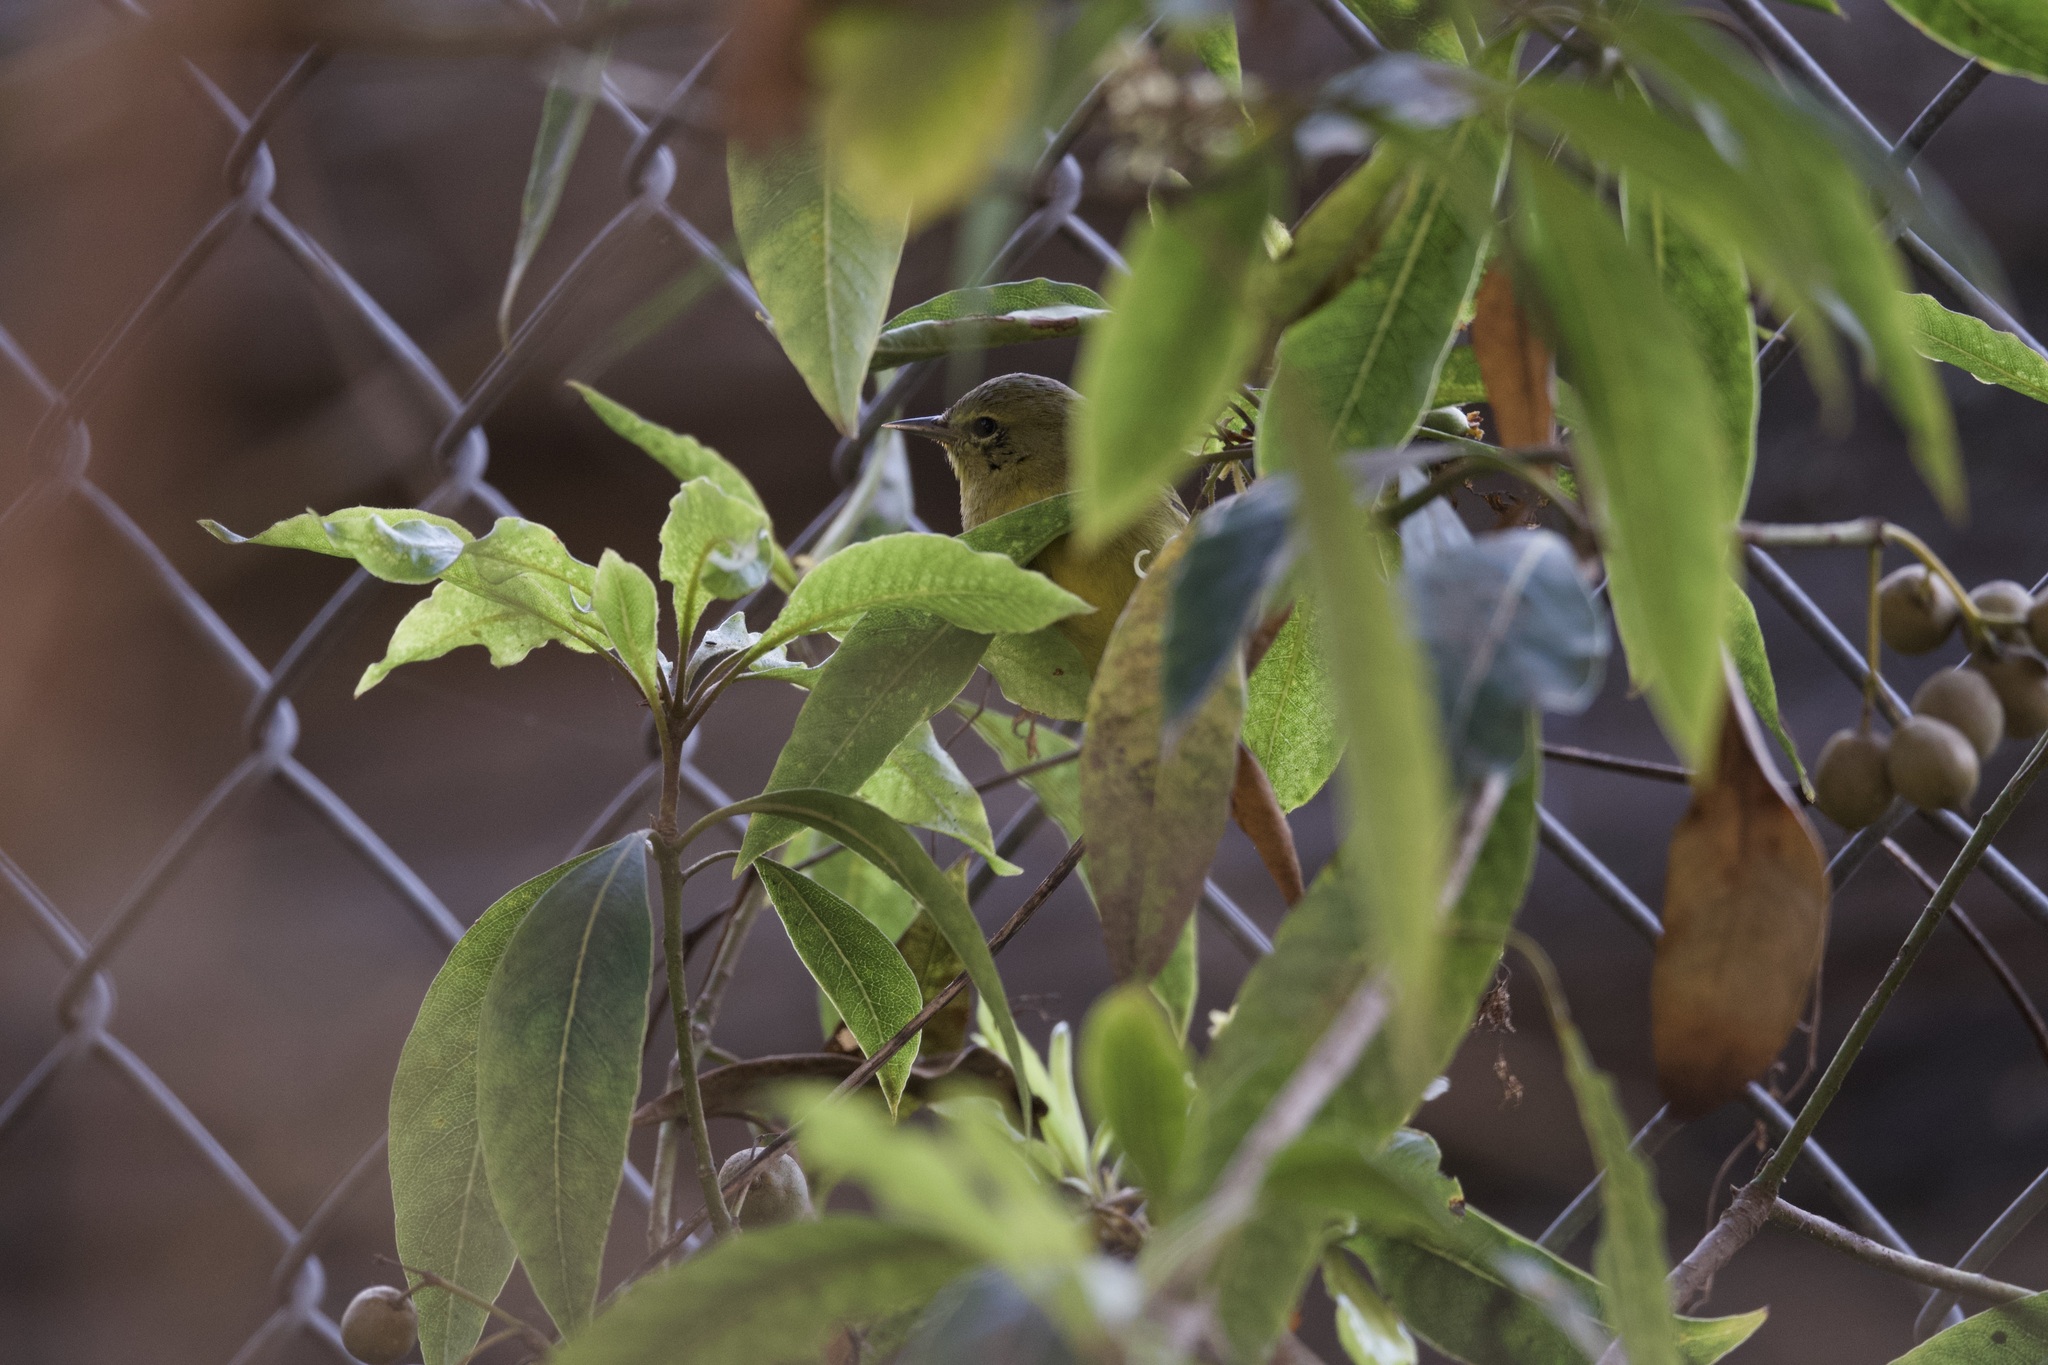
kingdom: Animalia
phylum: Chordata
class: Aves
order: Passeriformes
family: Parulidae
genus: Leiothlypis
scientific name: Leiothlypis celata
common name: Orange-crowned warbler
